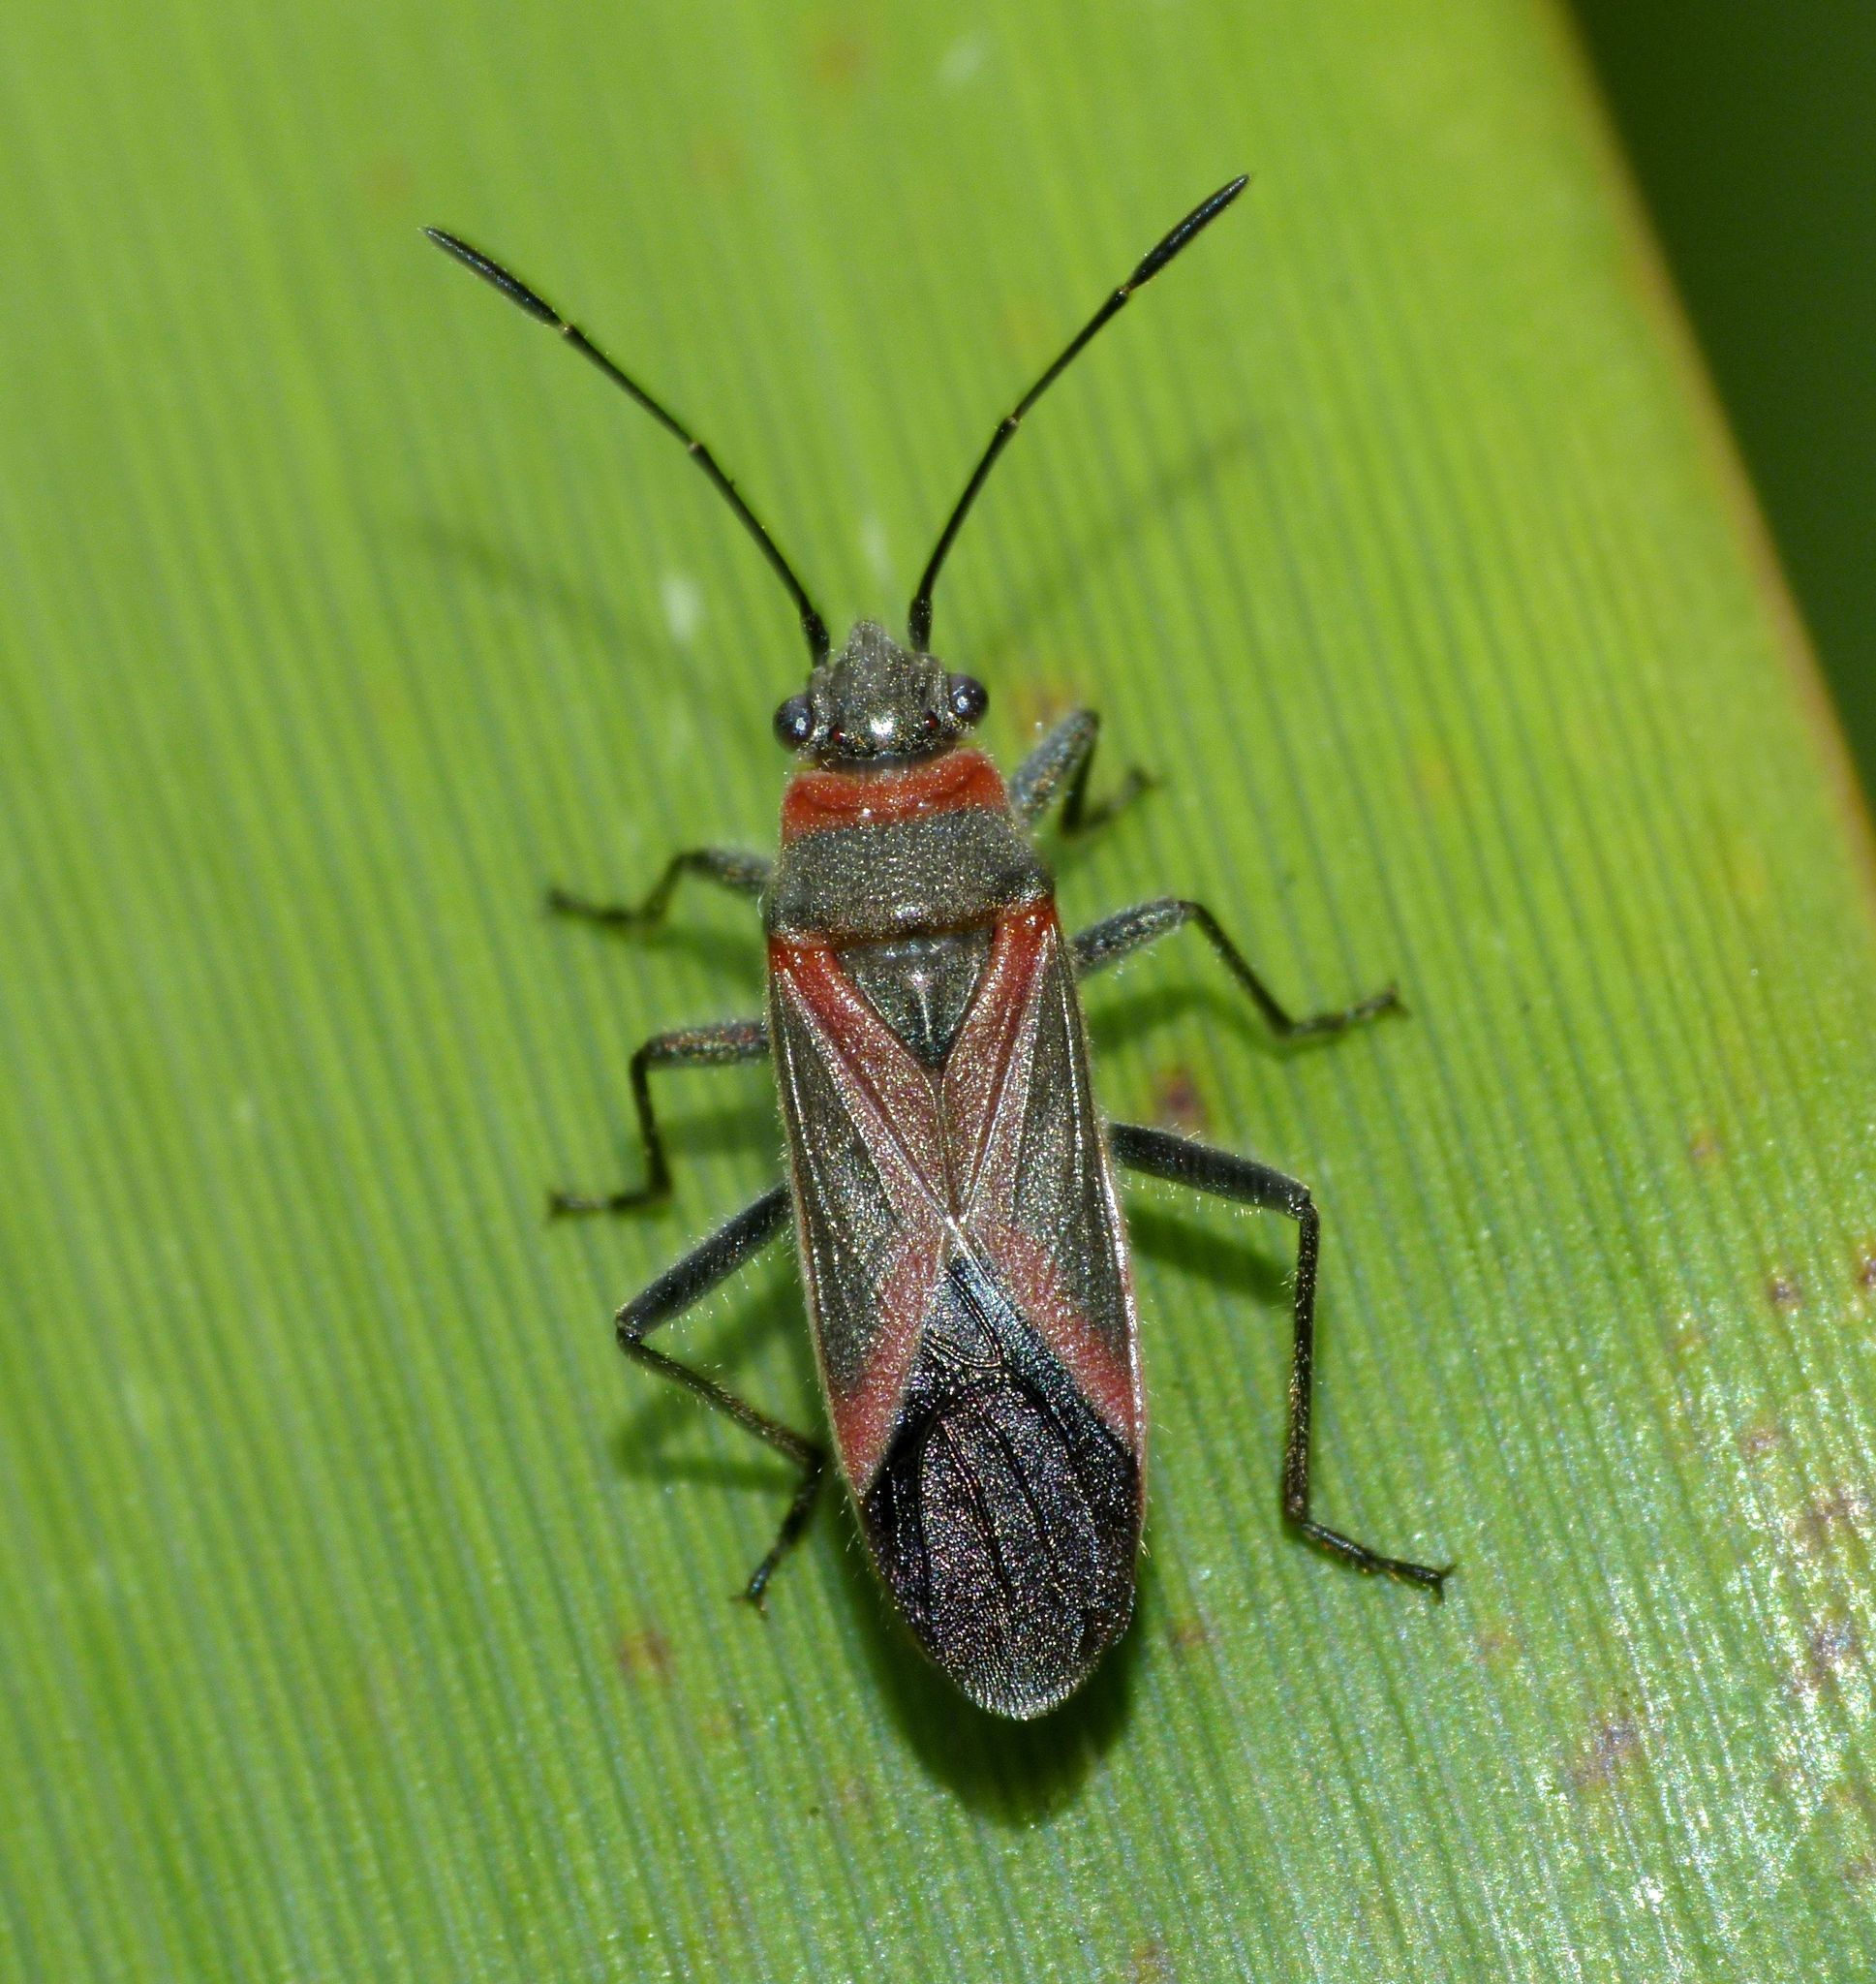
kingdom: Animalia
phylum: Arthropoda
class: Insecta
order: Hemiptera
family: Lygaeidae
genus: Arocatus
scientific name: Arocatus rusticus
